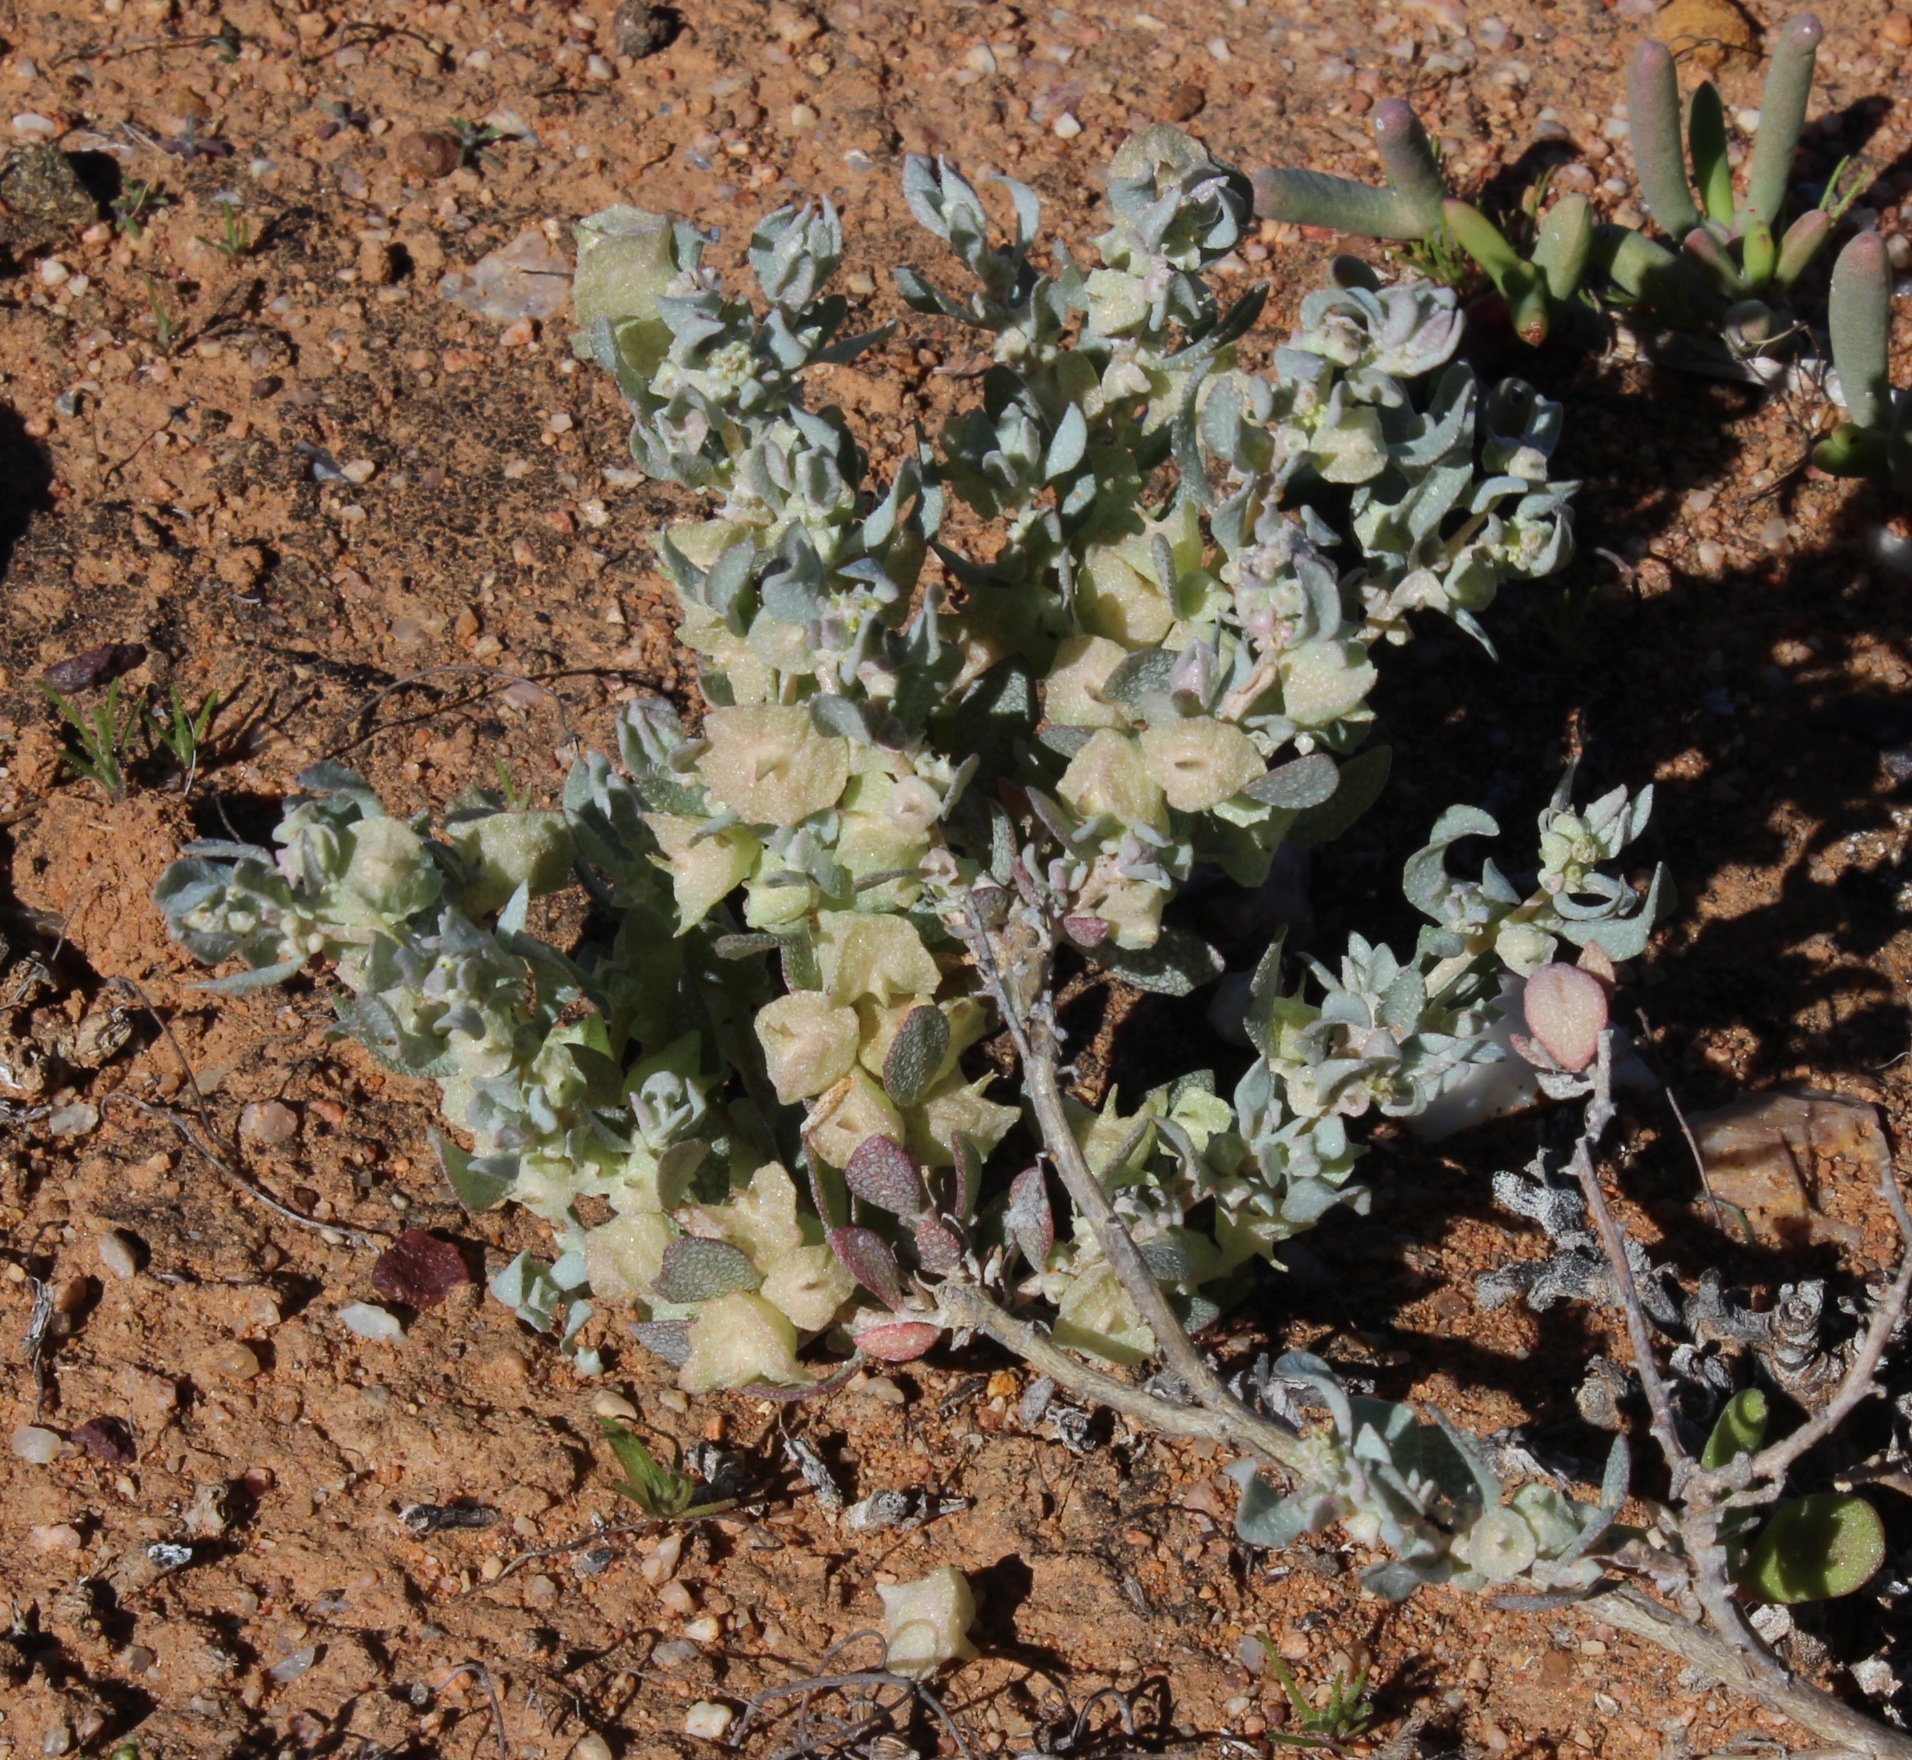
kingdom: Plantae
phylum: Tracheophyta
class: Magnoliopsida
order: Caryophyllales
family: Amaranthaceae
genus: Atriplex
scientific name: Atriplex lindleyi
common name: Lindley's saltbush
